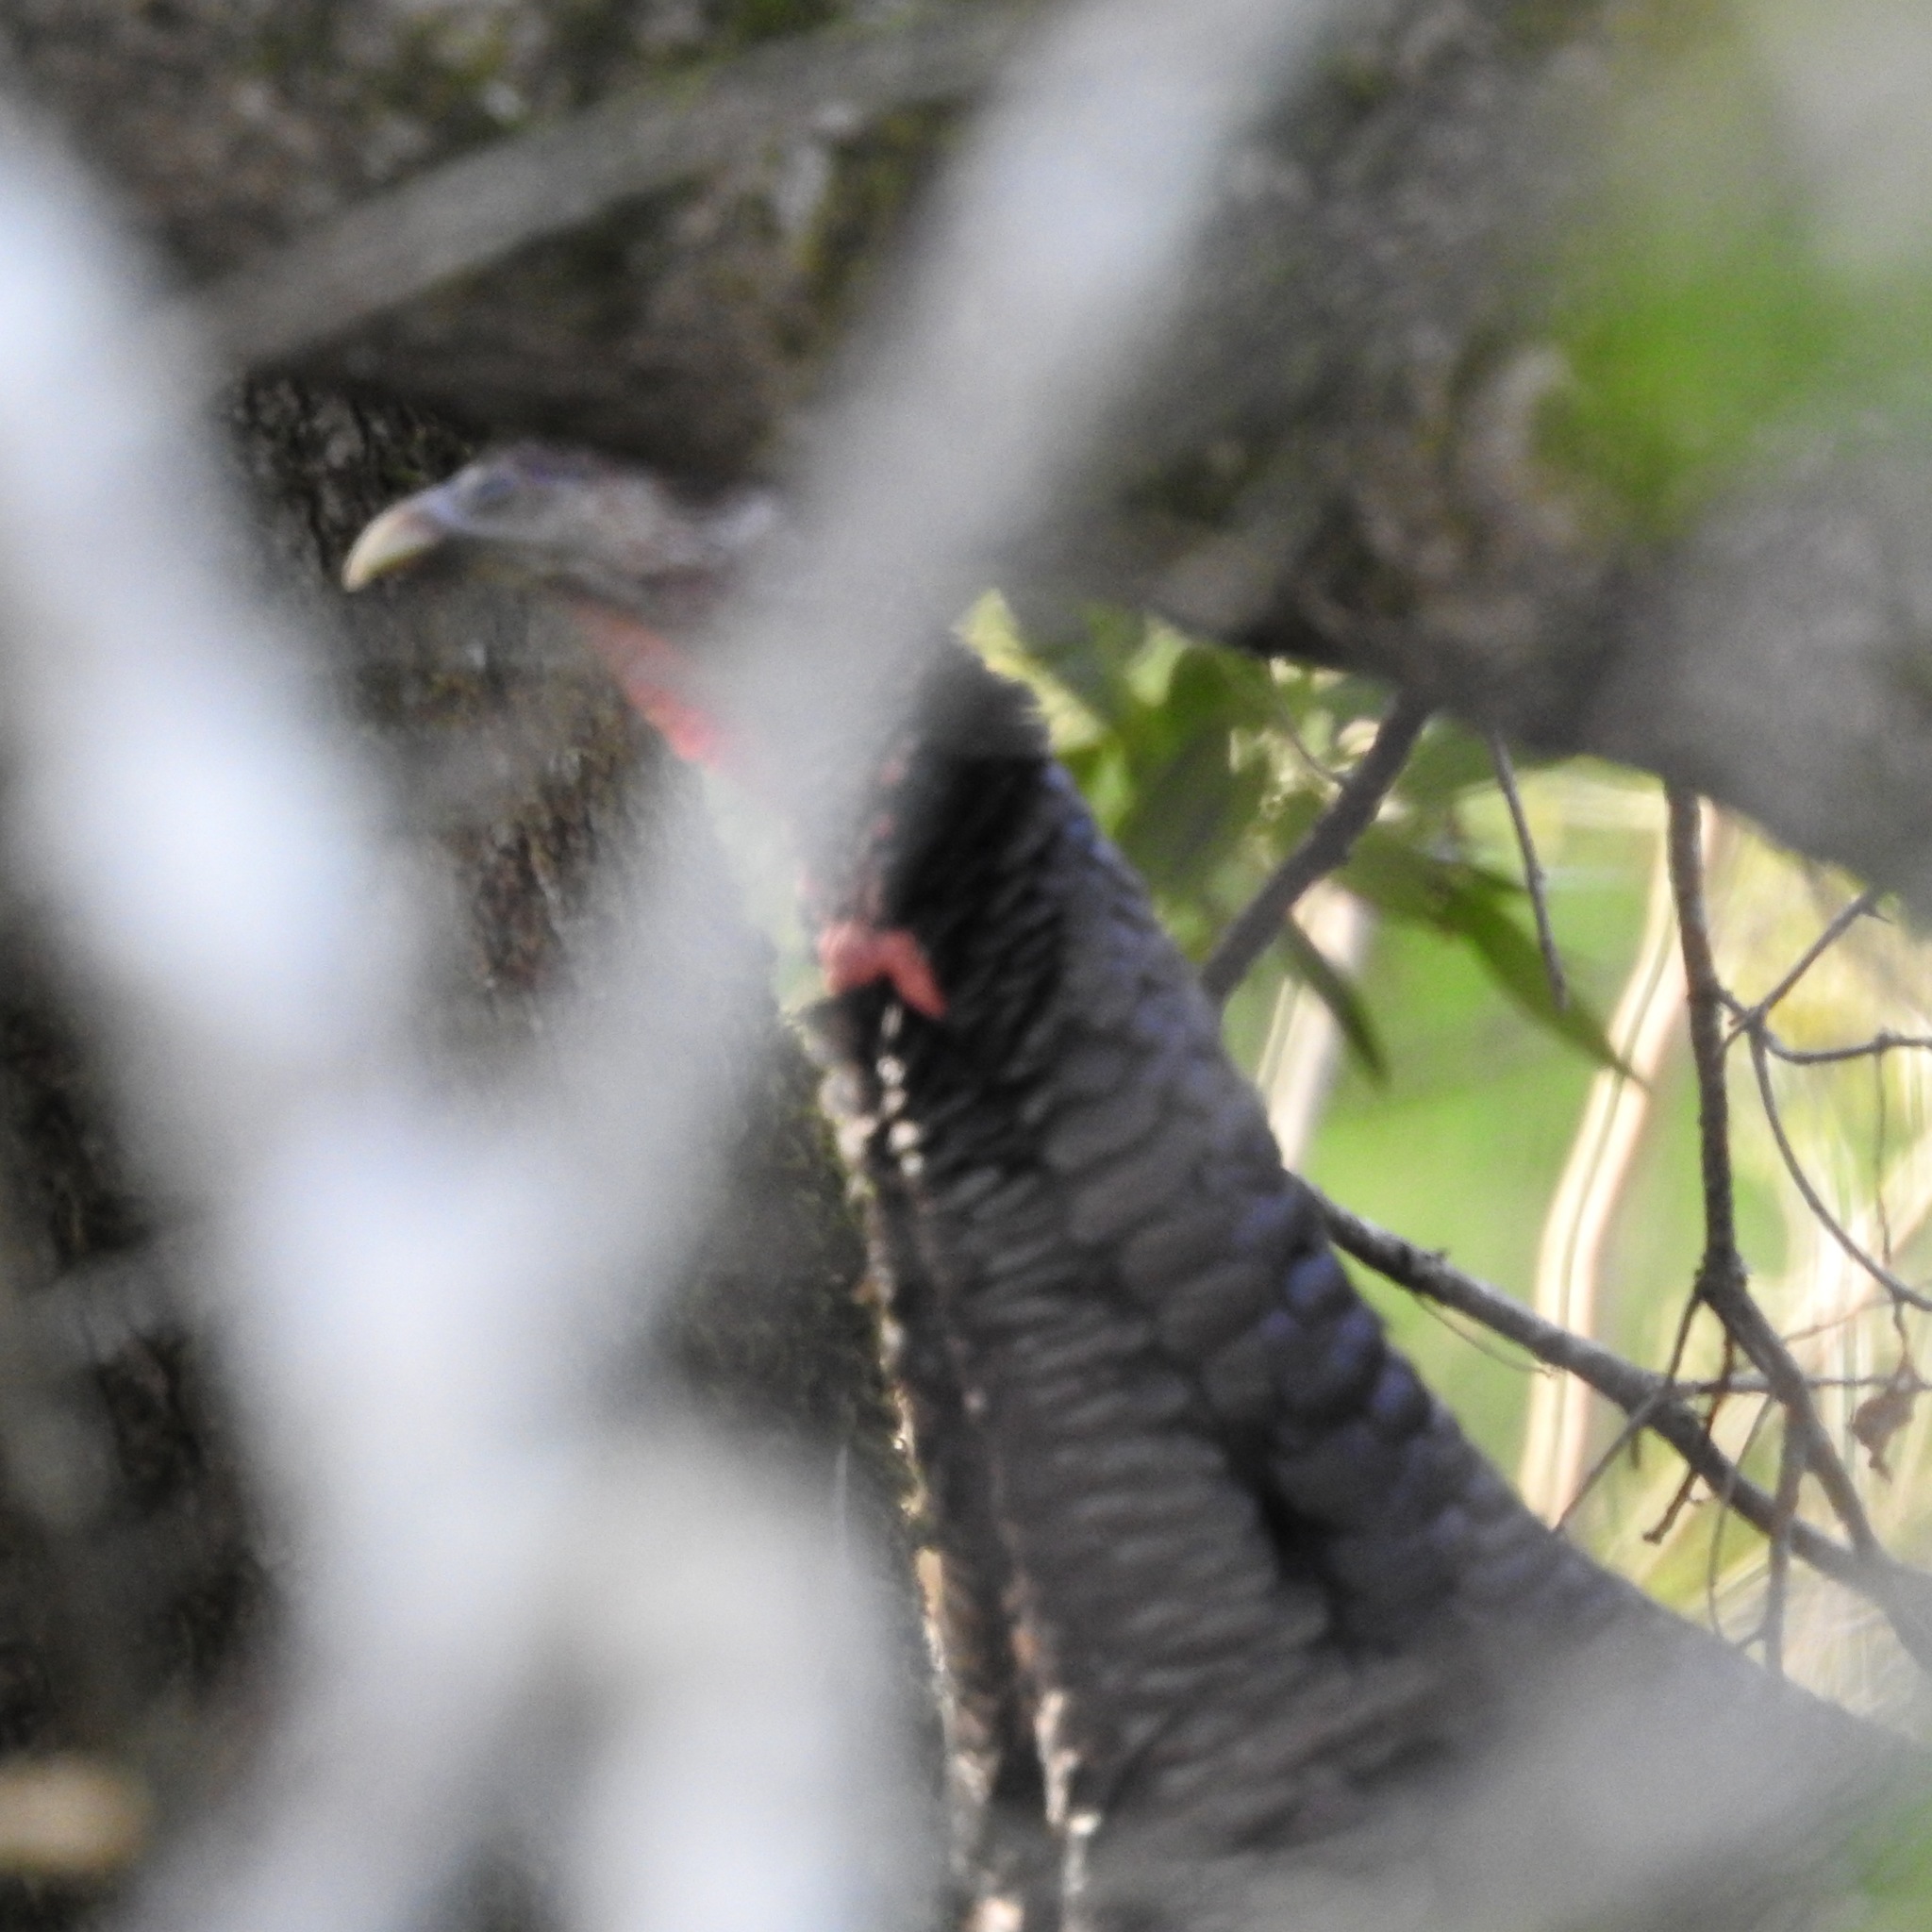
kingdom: Animalia
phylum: Chordata
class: Aves
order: Galliformes
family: Phasianidae
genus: Meleagris
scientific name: Meleagris gallopavo
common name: Wild turkey
